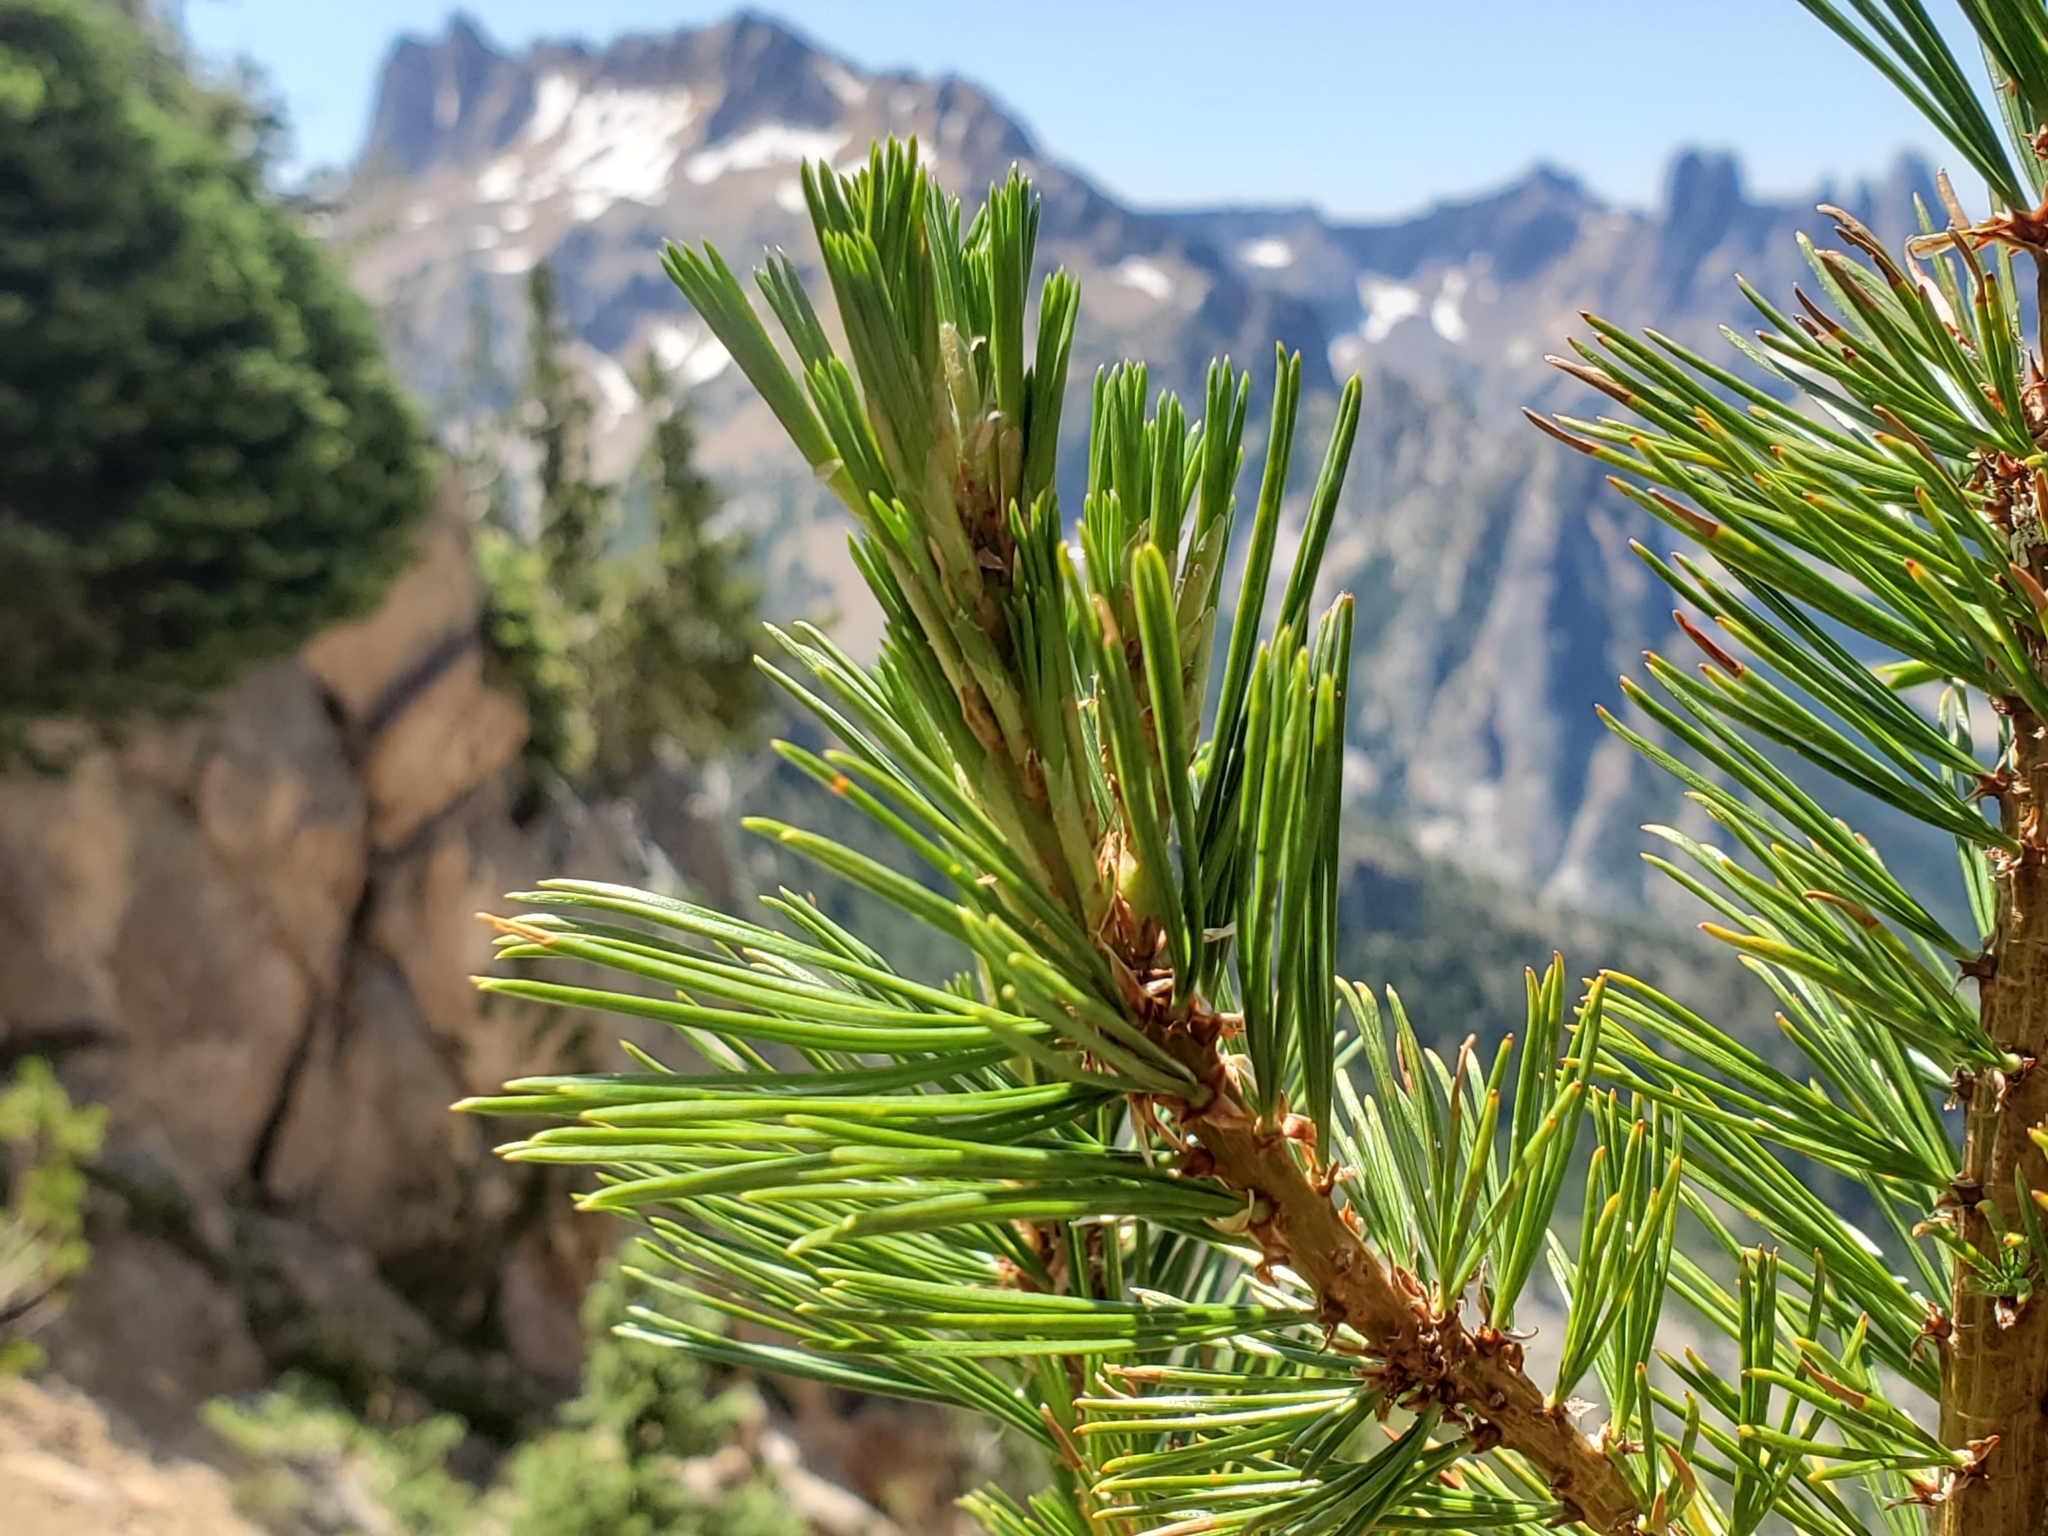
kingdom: Plantae
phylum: Tracheophyta
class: Pinopsida
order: Pinales
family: Pinaceae
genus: Pinus
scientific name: Pinus albicaulis
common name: Whitebark pine
